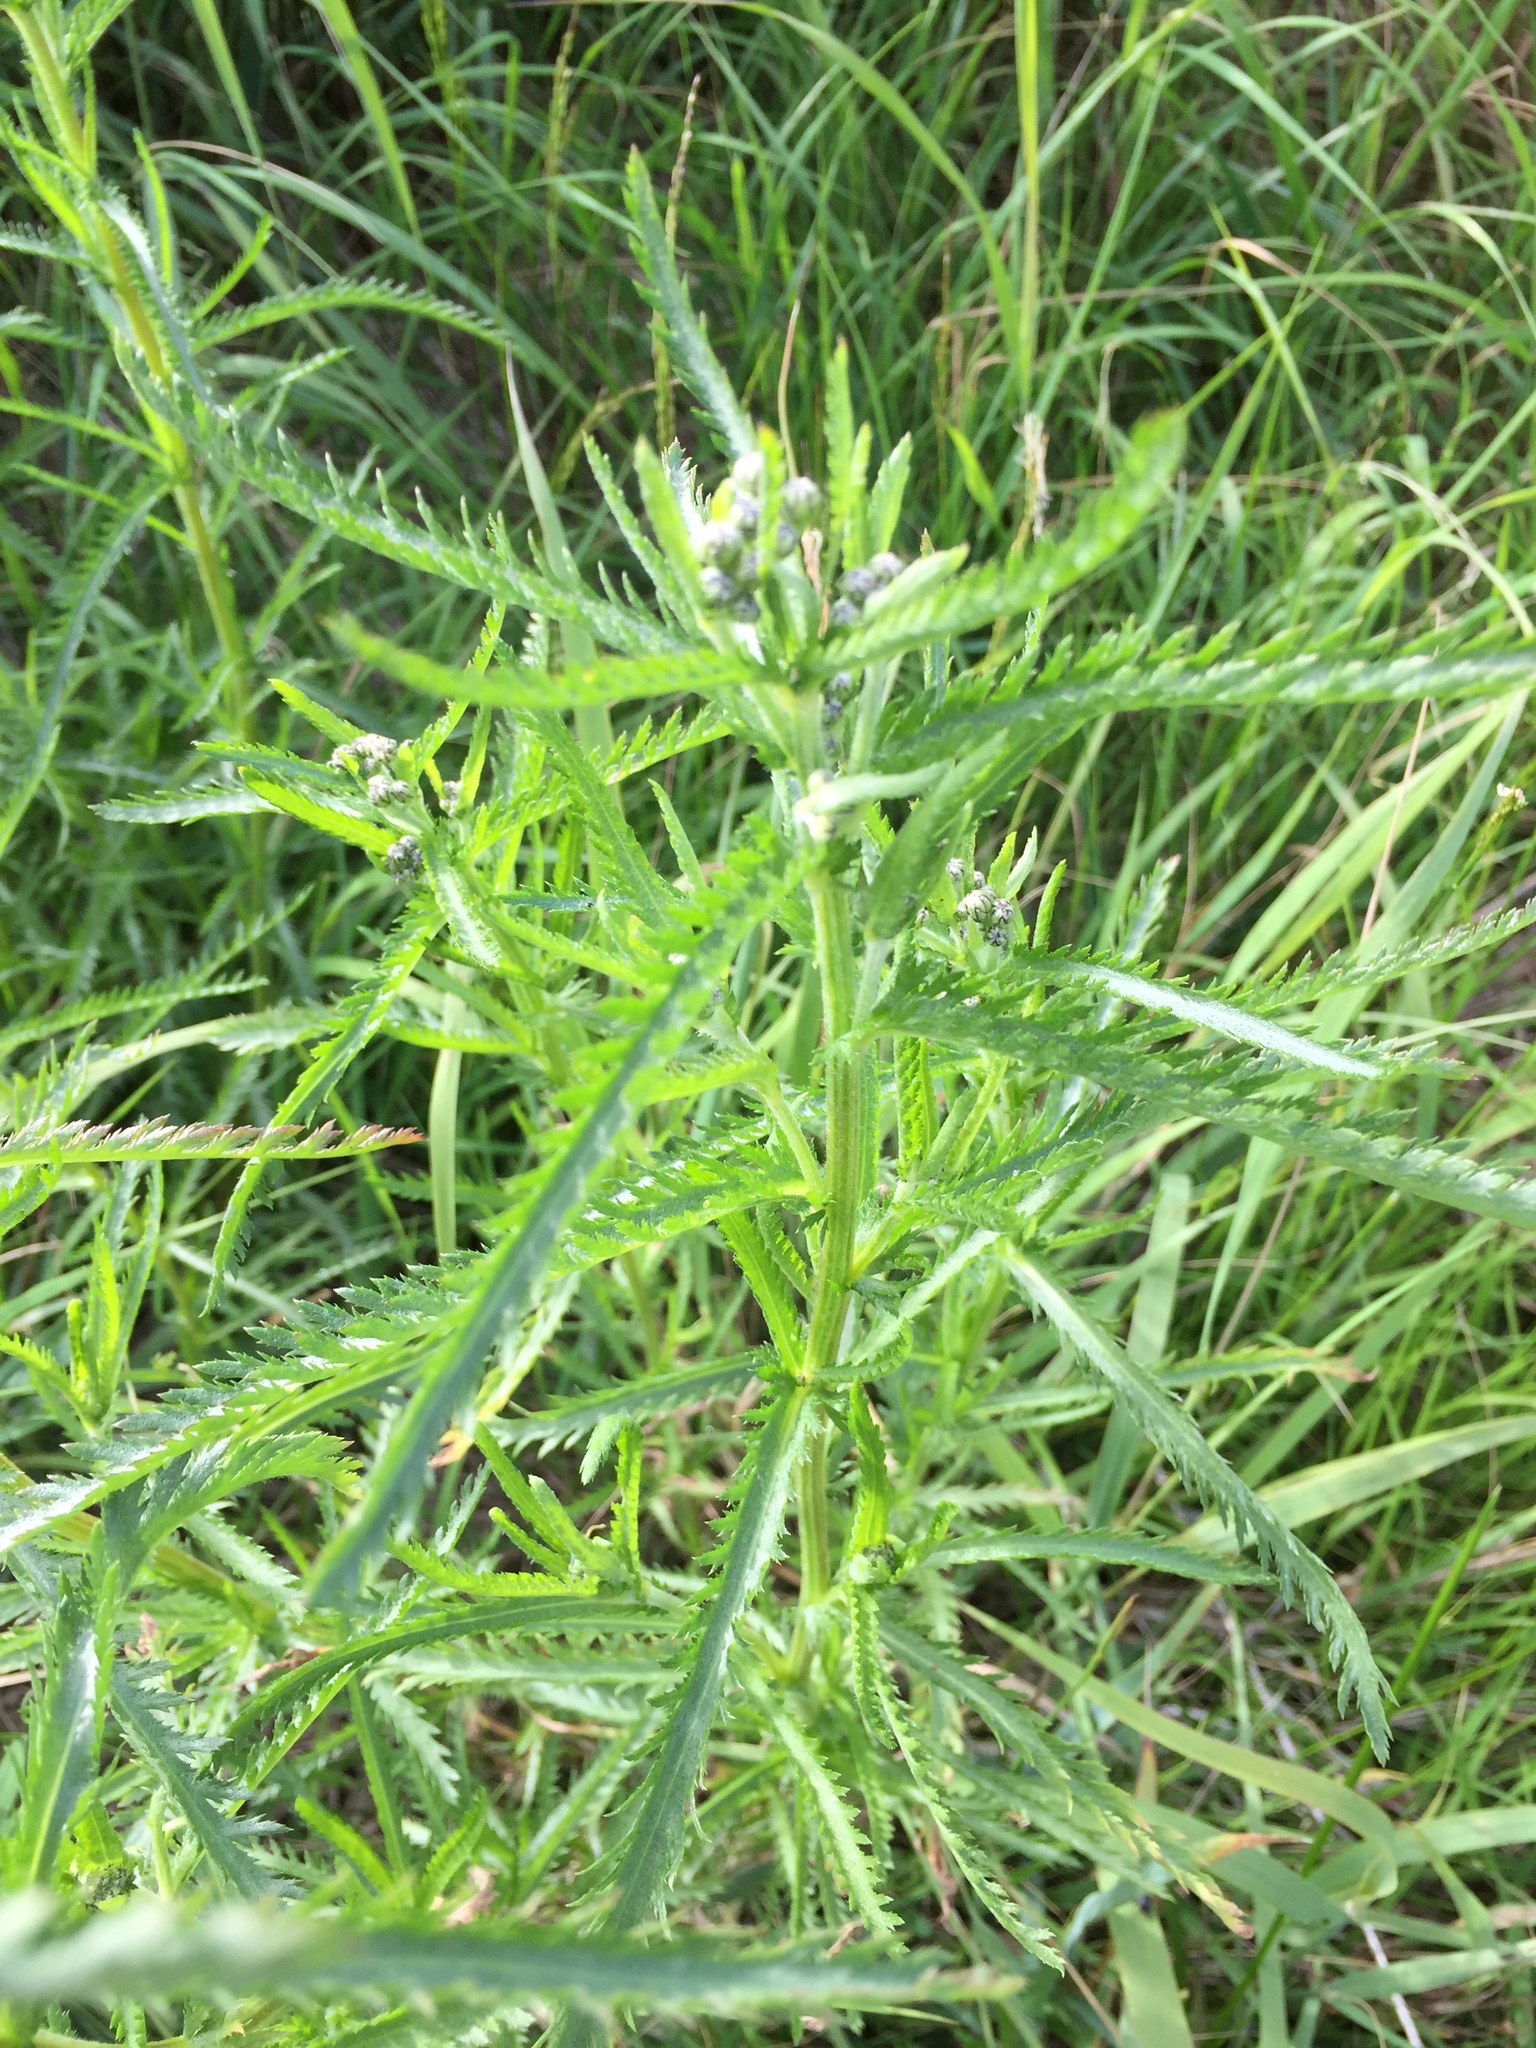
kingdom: Plantae
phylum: Tracheophyta
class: Magnoliopsida
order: Asterales
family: Asteraceae
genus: Achillea
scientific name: Achillea alpina
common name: Siberian yarrow
